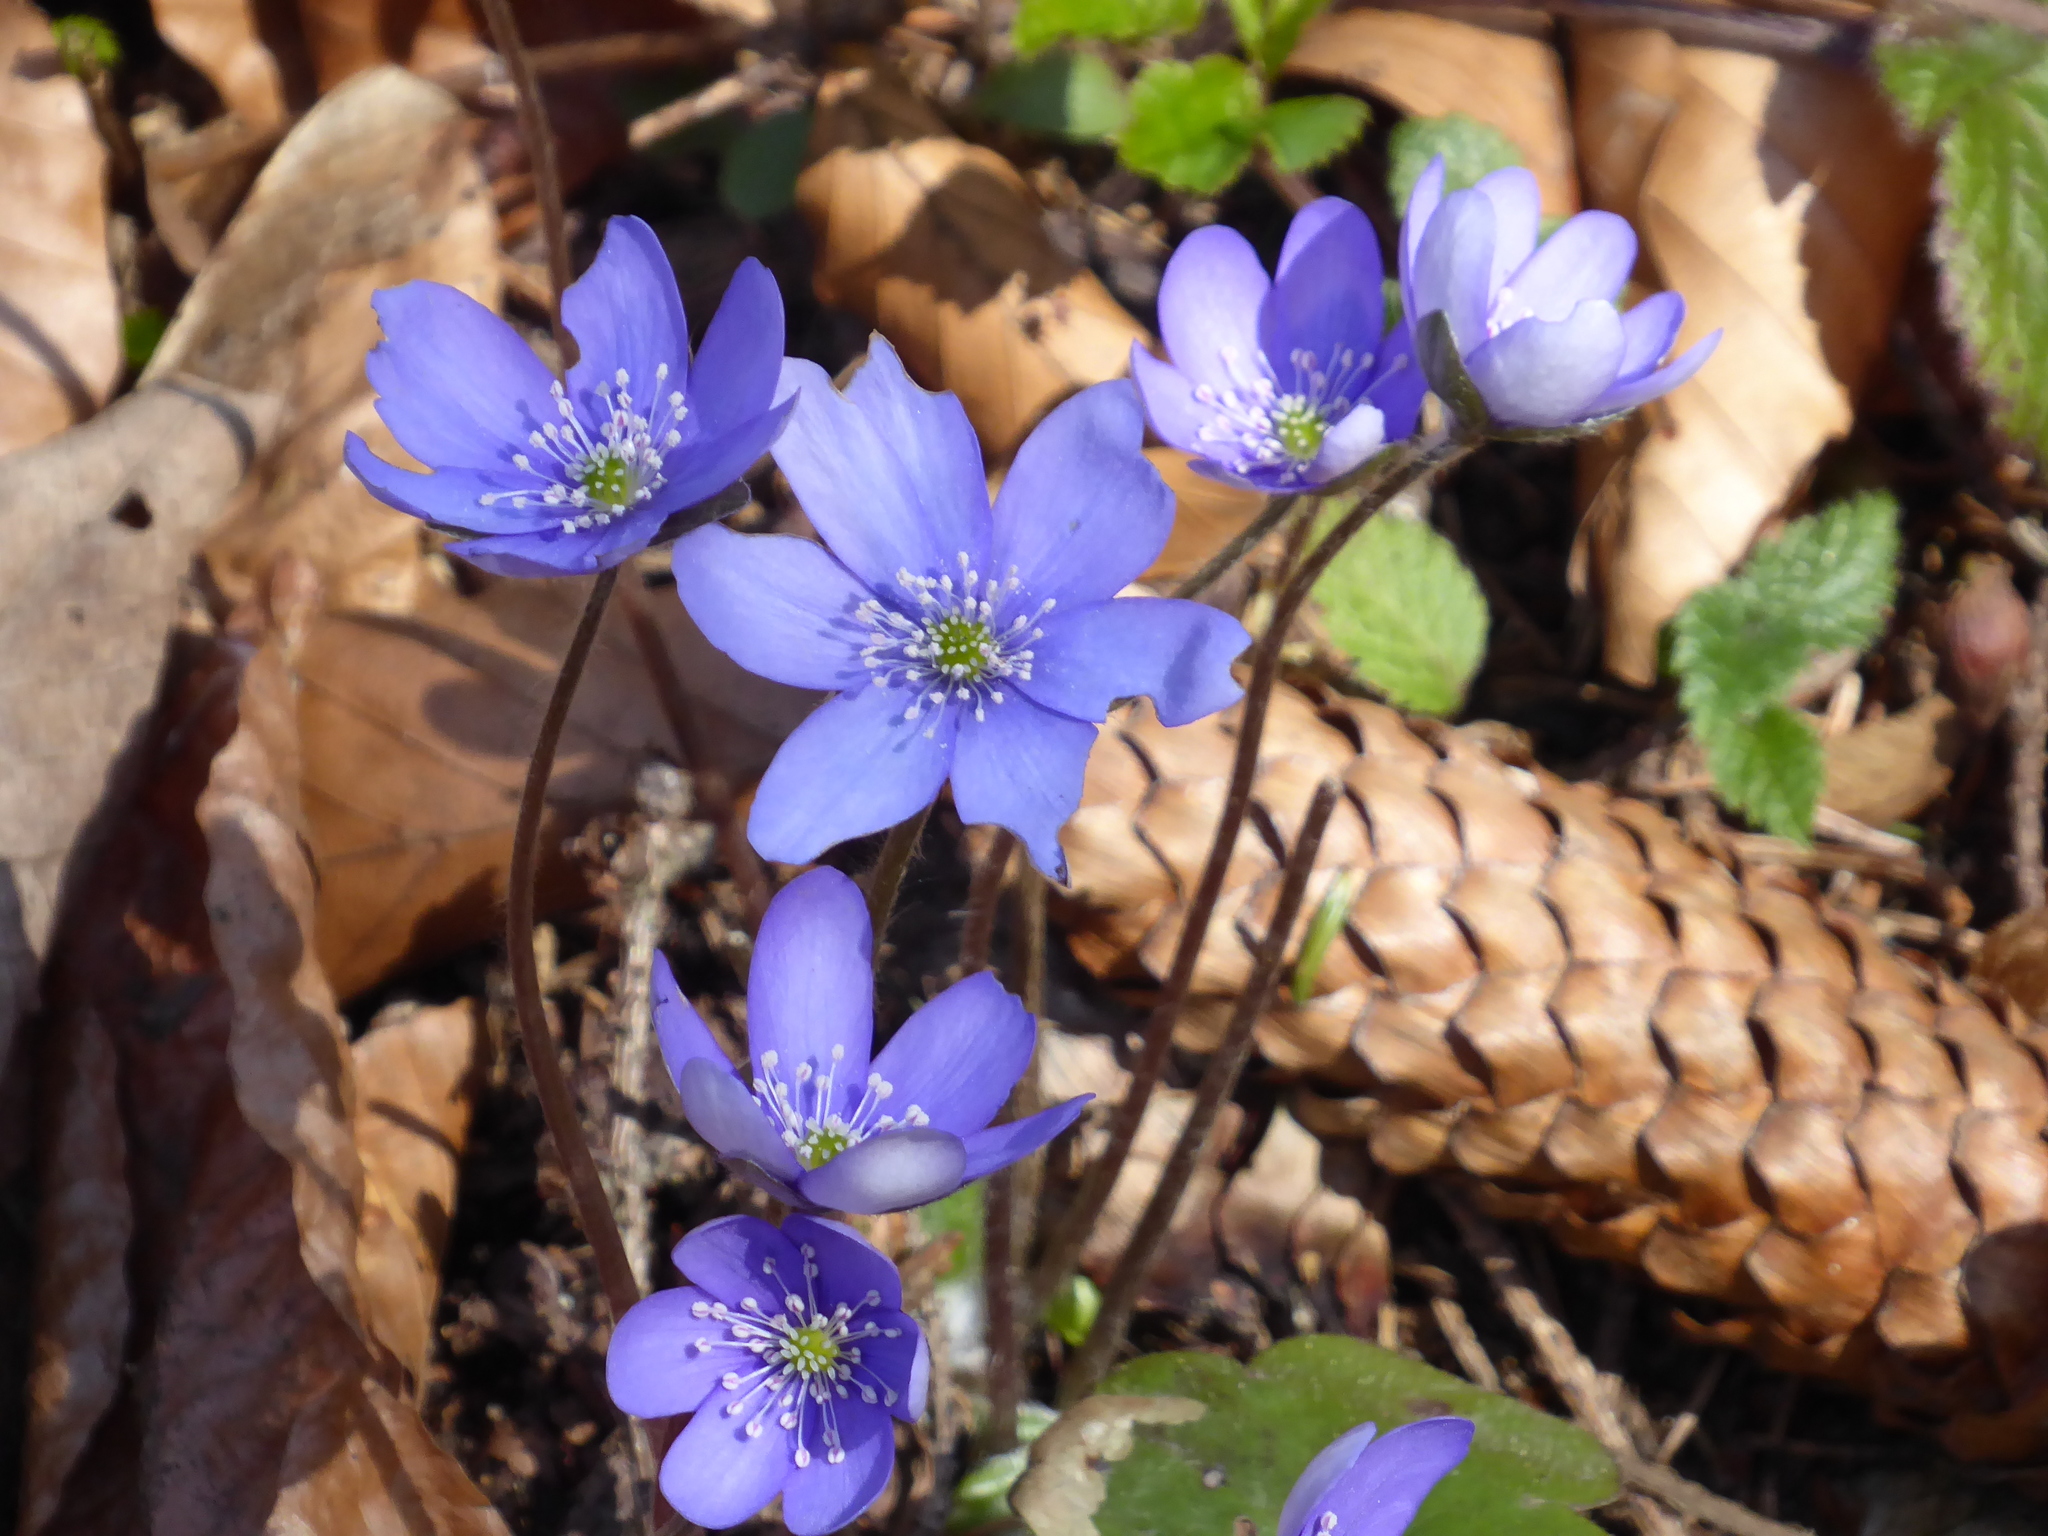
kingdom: Plantae
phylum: Tracheophyta
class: Magnoliopsida
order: Ranunculales
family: Ranunculaceae
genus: Hepatica
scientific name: Hepatica nobilis
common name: Liverleaf
